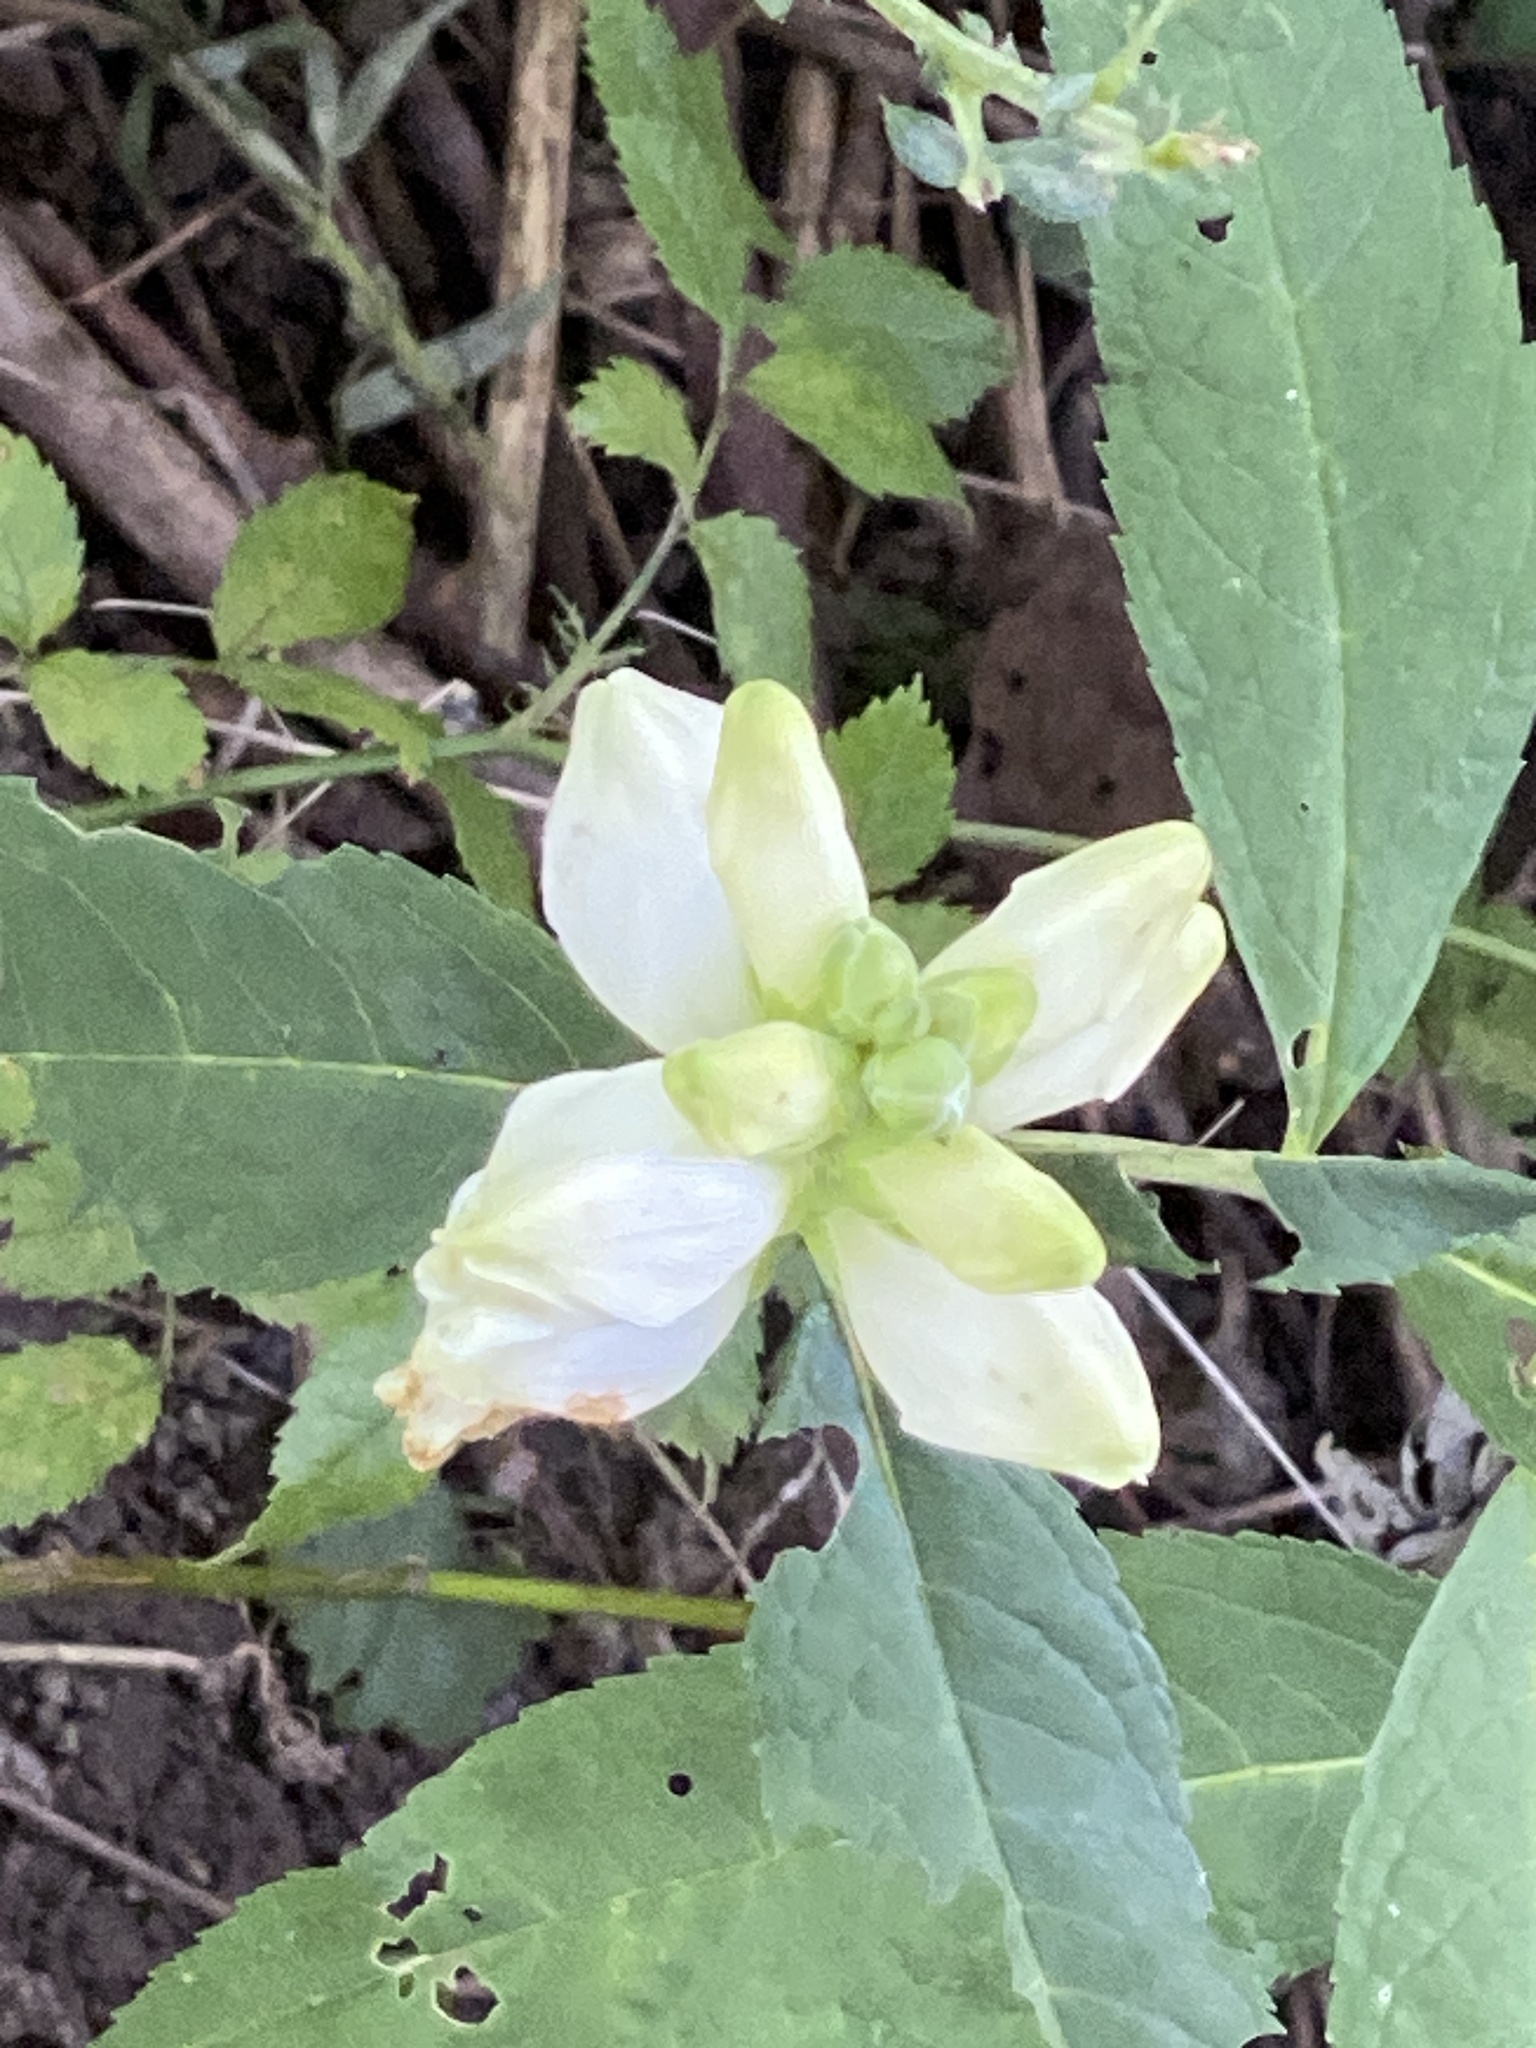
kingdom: Plantae
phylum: Tracheophyta
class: Magnoliopsida
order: Lamiales
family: Plantaginaceae
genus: Chelone
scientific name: Chelone glabra
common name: Snakehead
